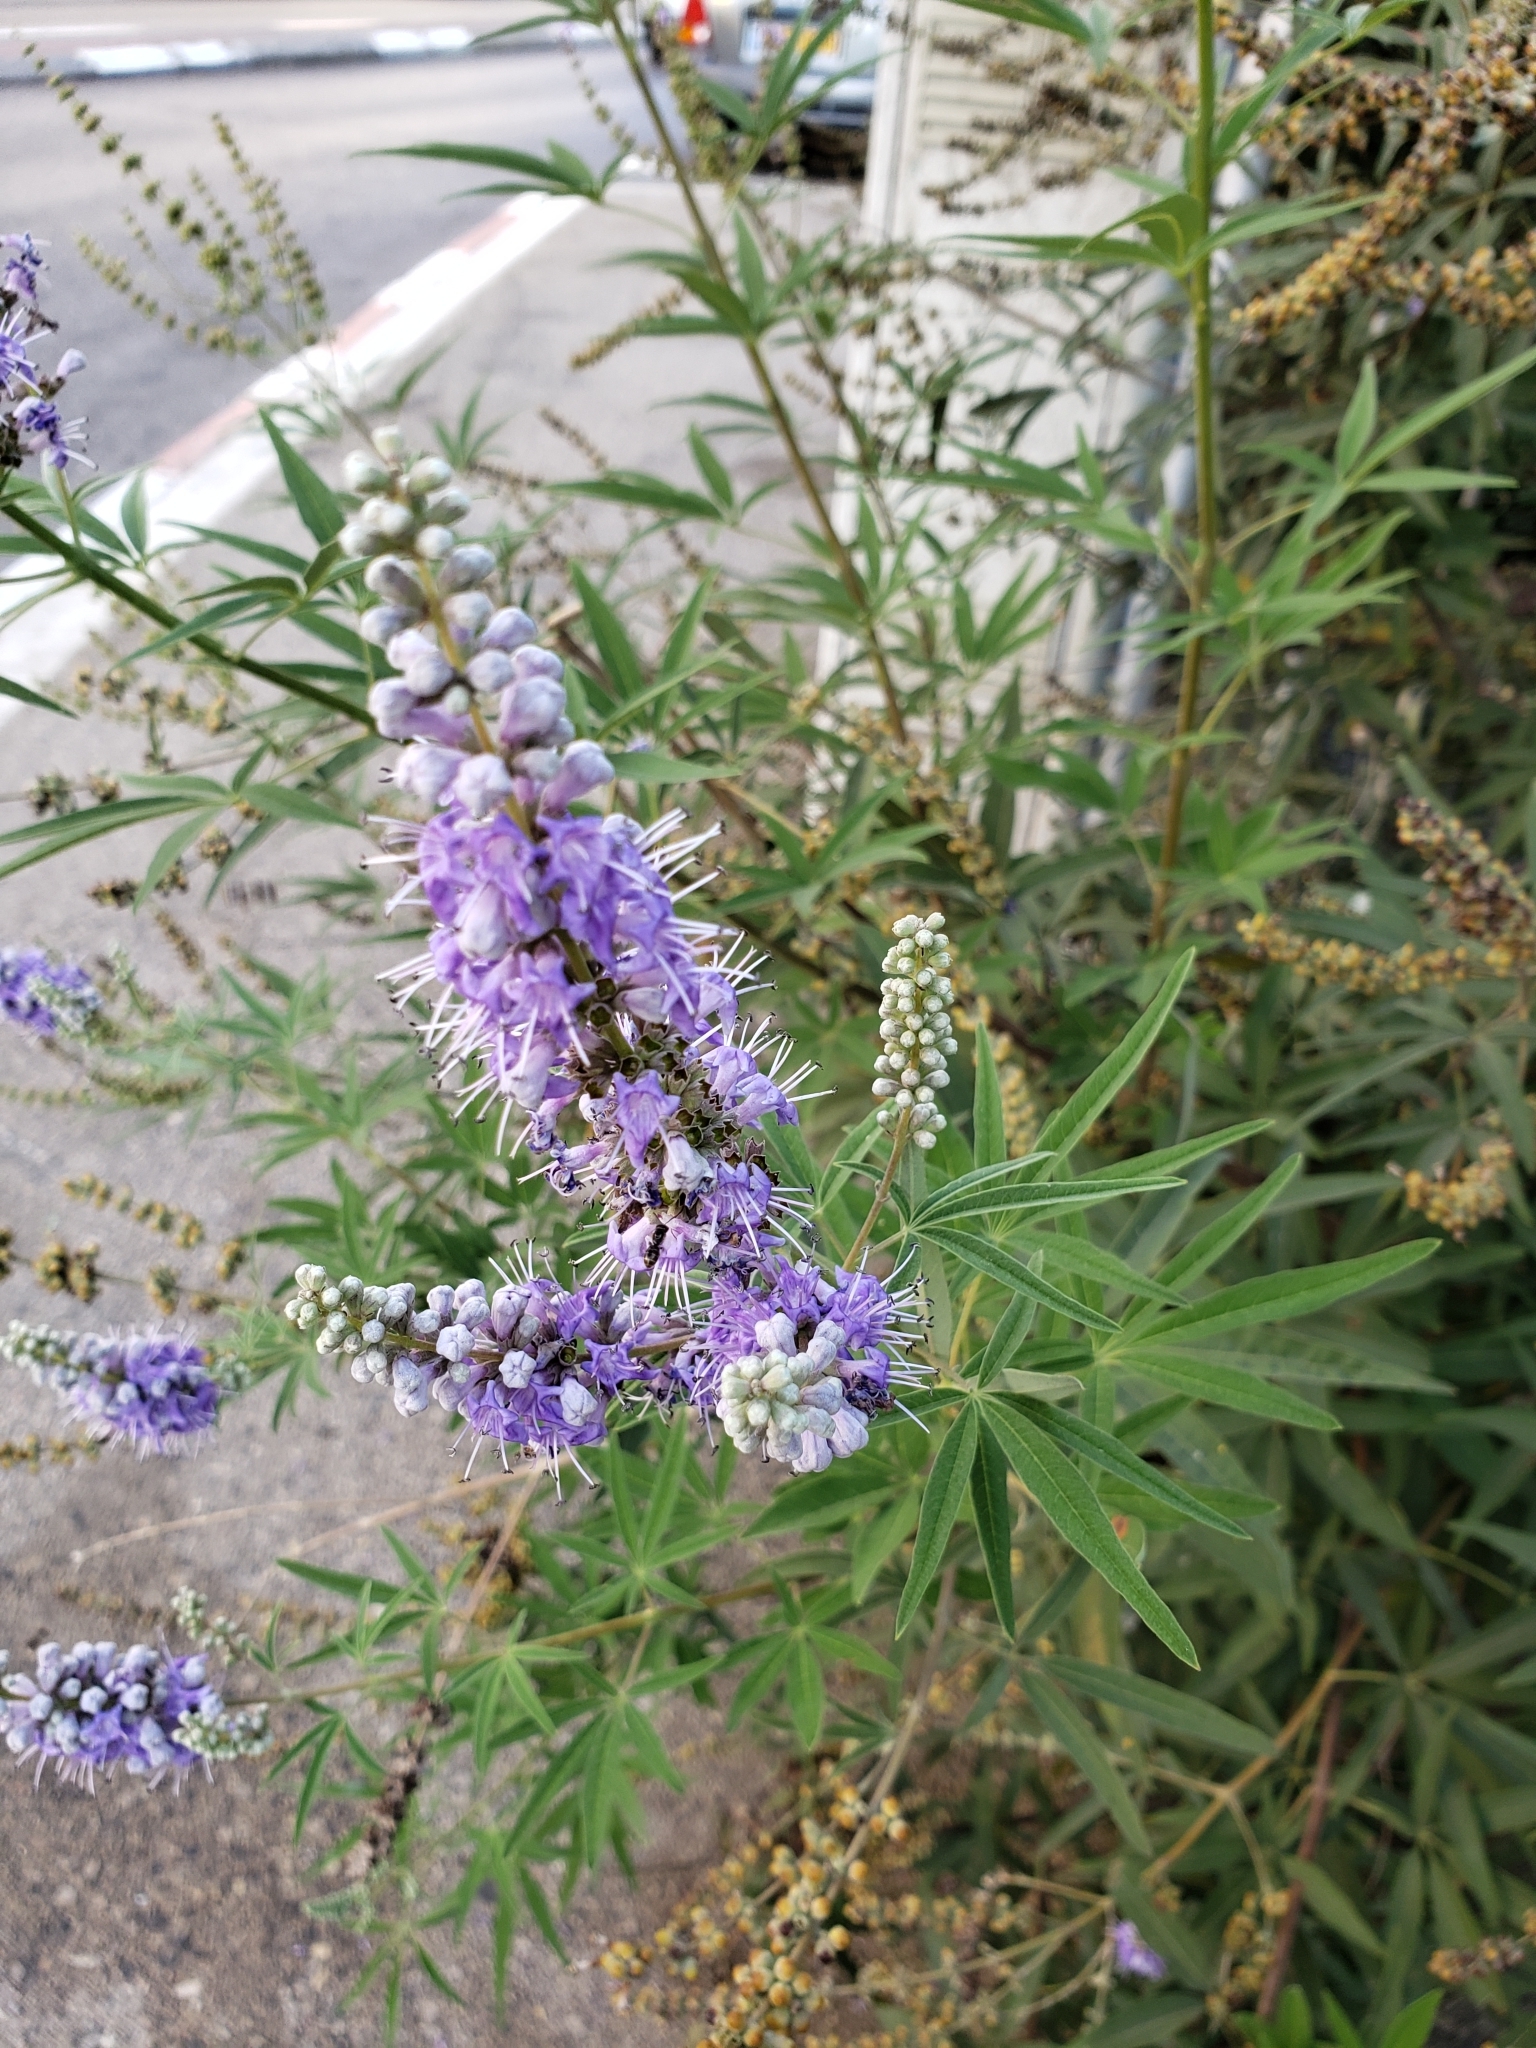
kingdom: Plantae
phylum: Tracheophyta
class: Magnoliopsida
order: Lamiales
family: Lamiaceae
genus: Vitex
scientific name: Vitex agnus-castus
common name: Chasteberry
